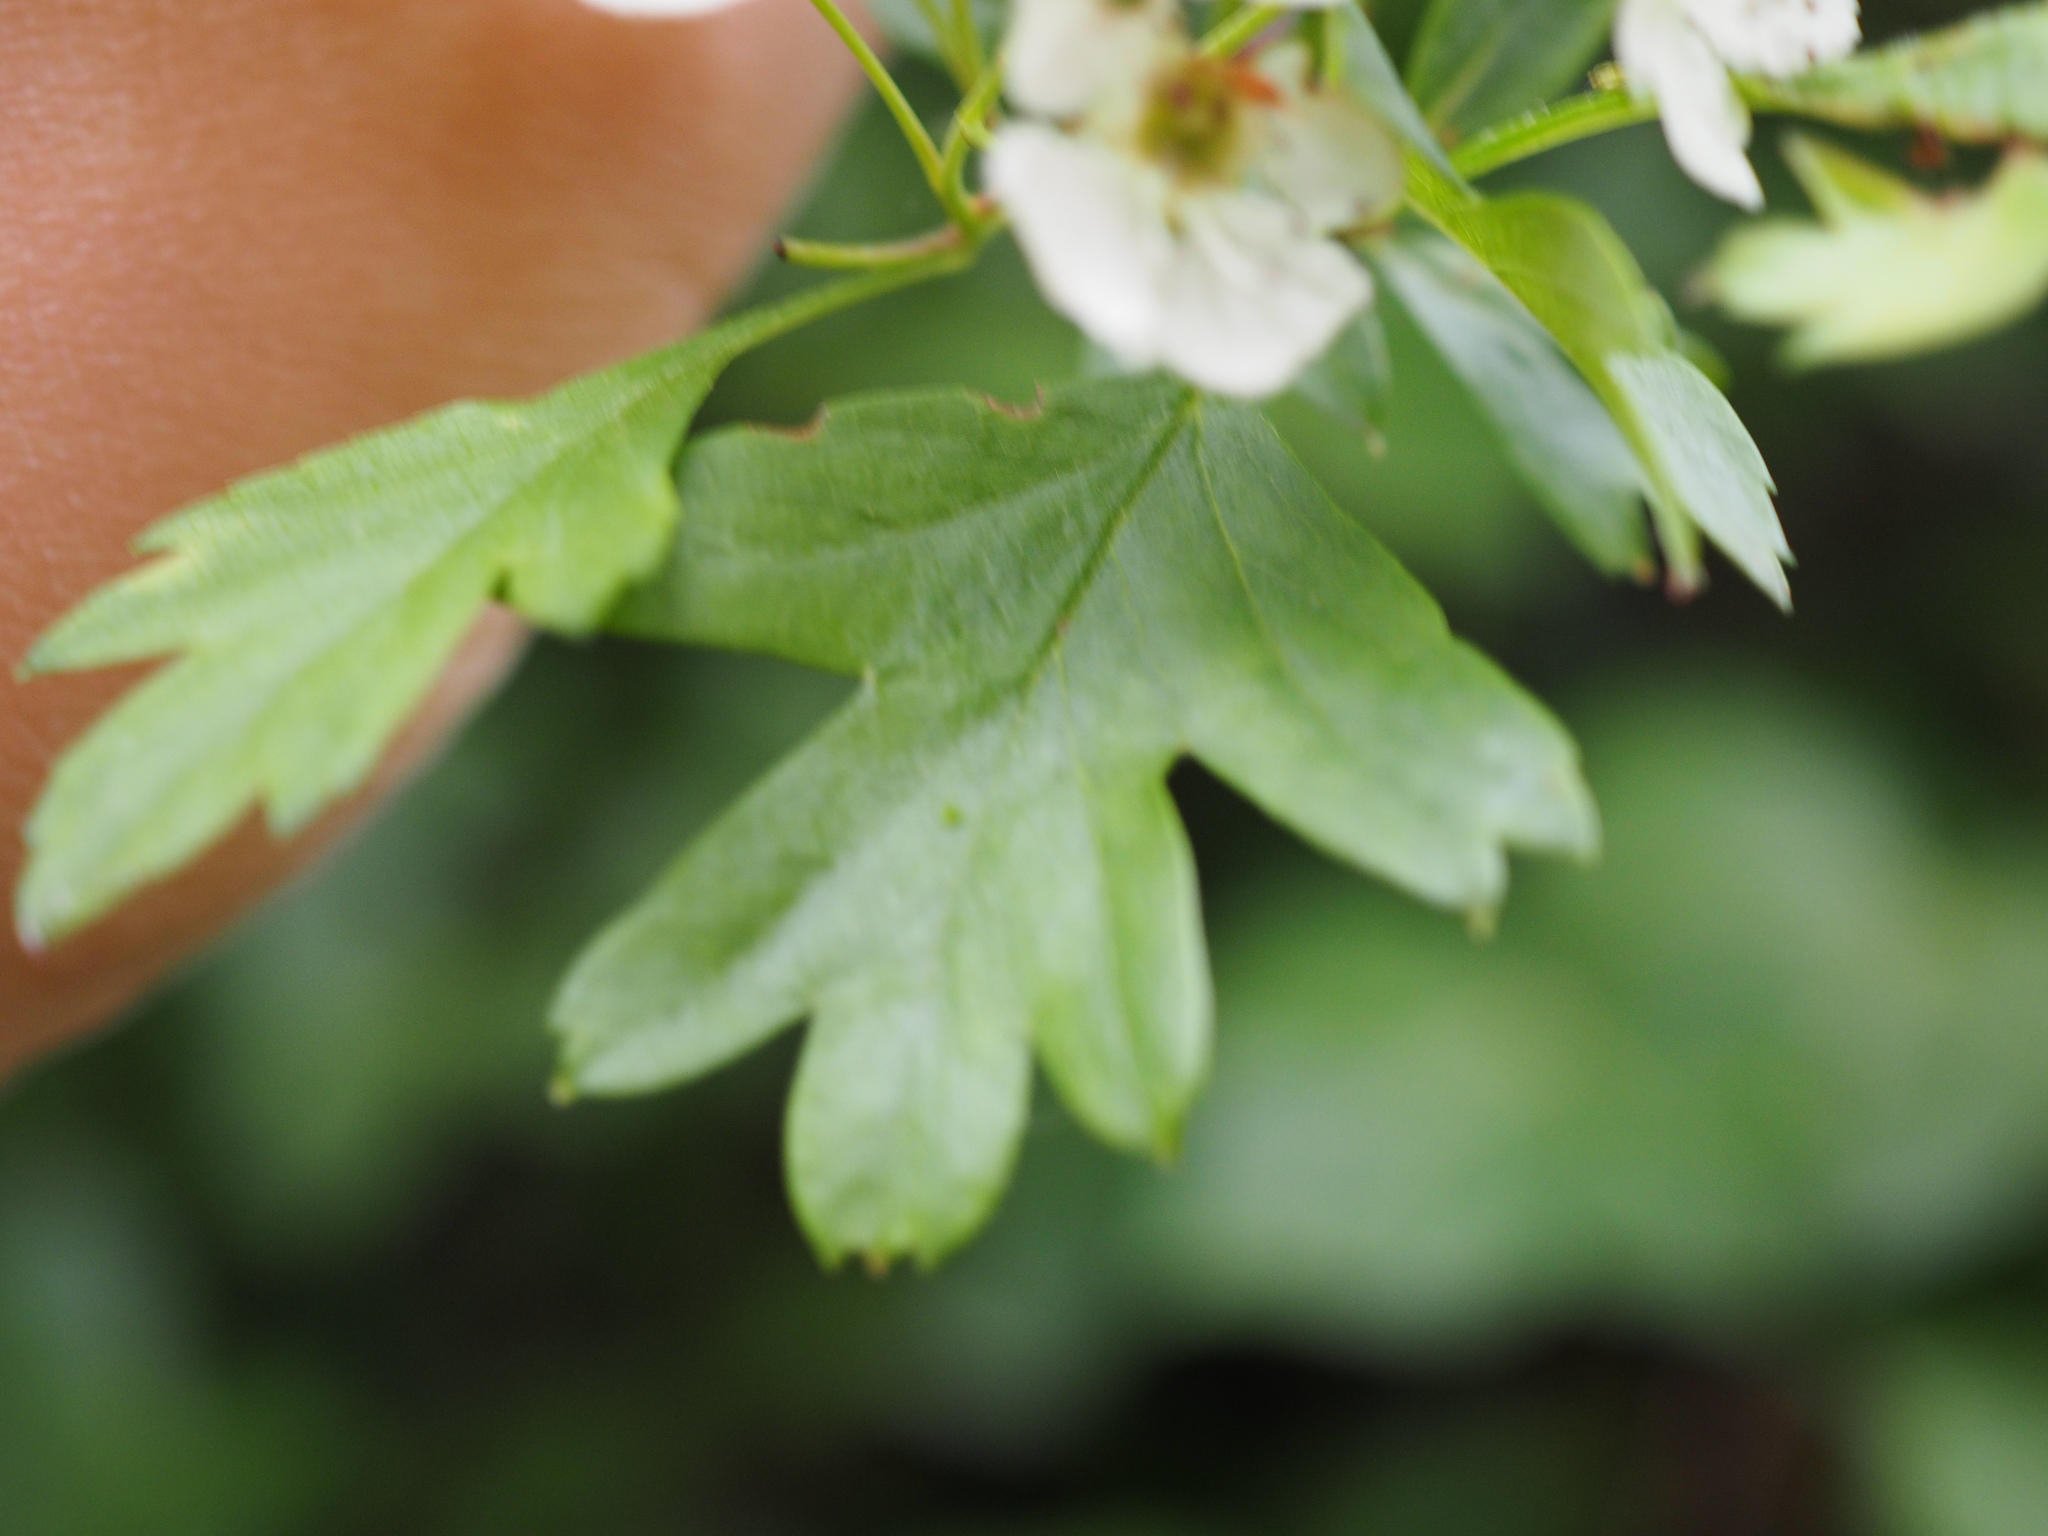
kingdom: Plantae
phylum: Tracheophyta
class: Magnoliopsida
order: Rosales
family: Rosaceae
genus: Crataegus
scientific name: Crataegus monogyna
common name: Hawthorn
